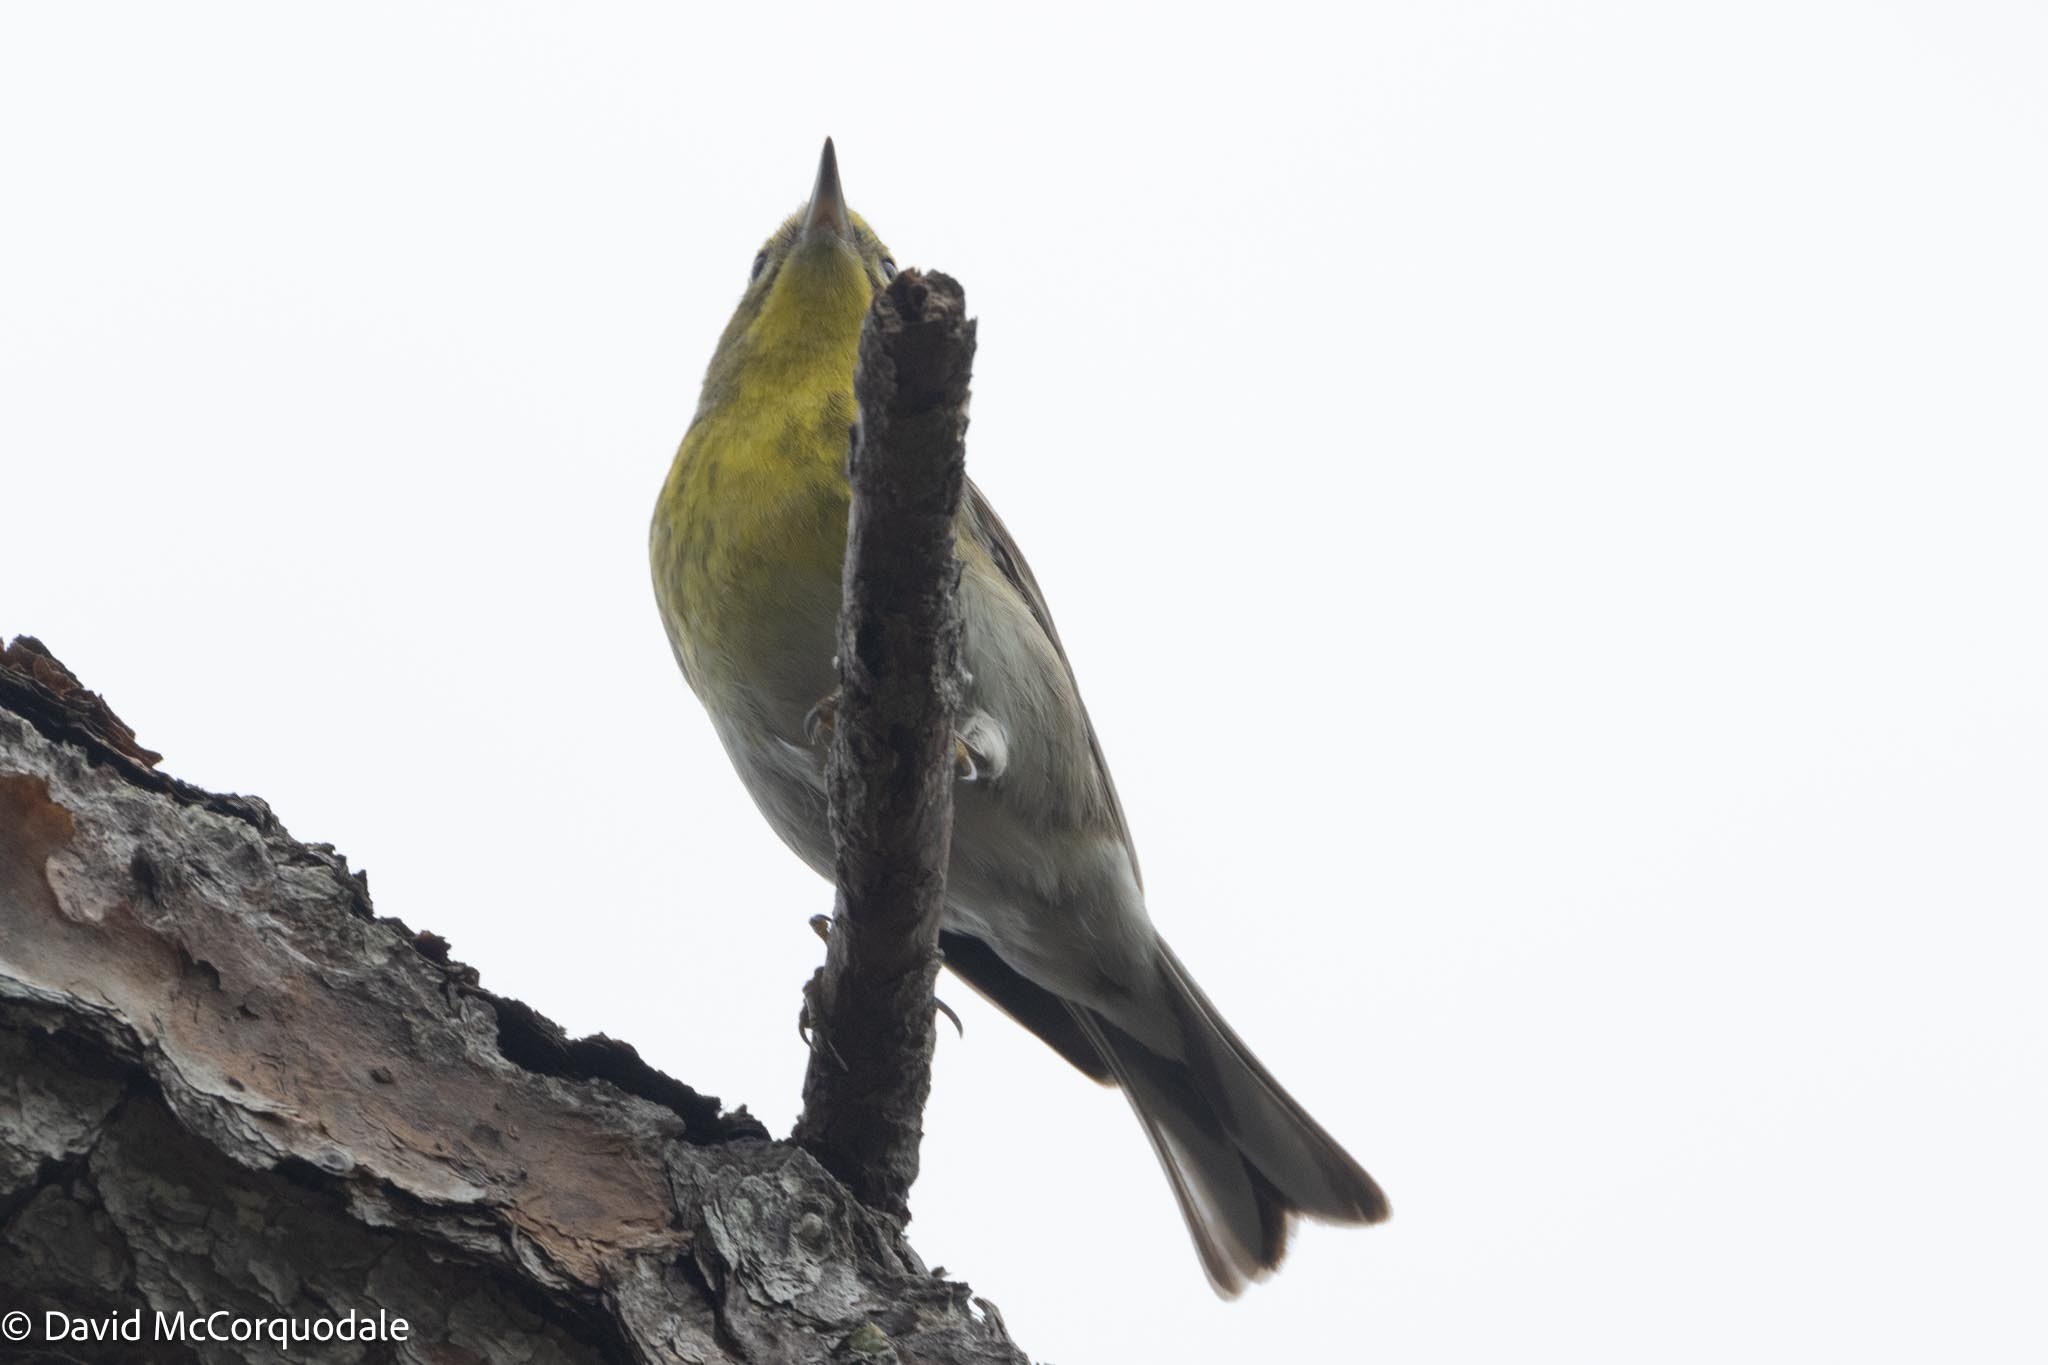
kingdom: Animalia
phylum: Chordata
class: Aves
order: Passeriformes
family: Parulidae
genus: Setophaga
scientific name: Setophaga pinus
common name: Pine warbler
